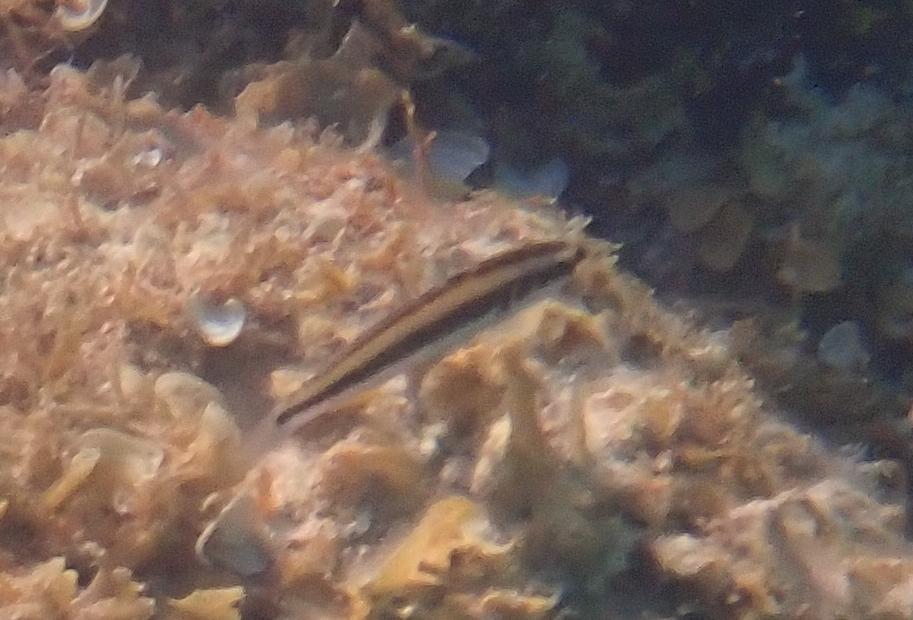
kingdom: Animalia
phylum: Chordata
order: Perciformes
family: Labridae
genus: Thalassoma
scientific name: Thalassoma bifasciatum
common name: Bluehead wrasse
